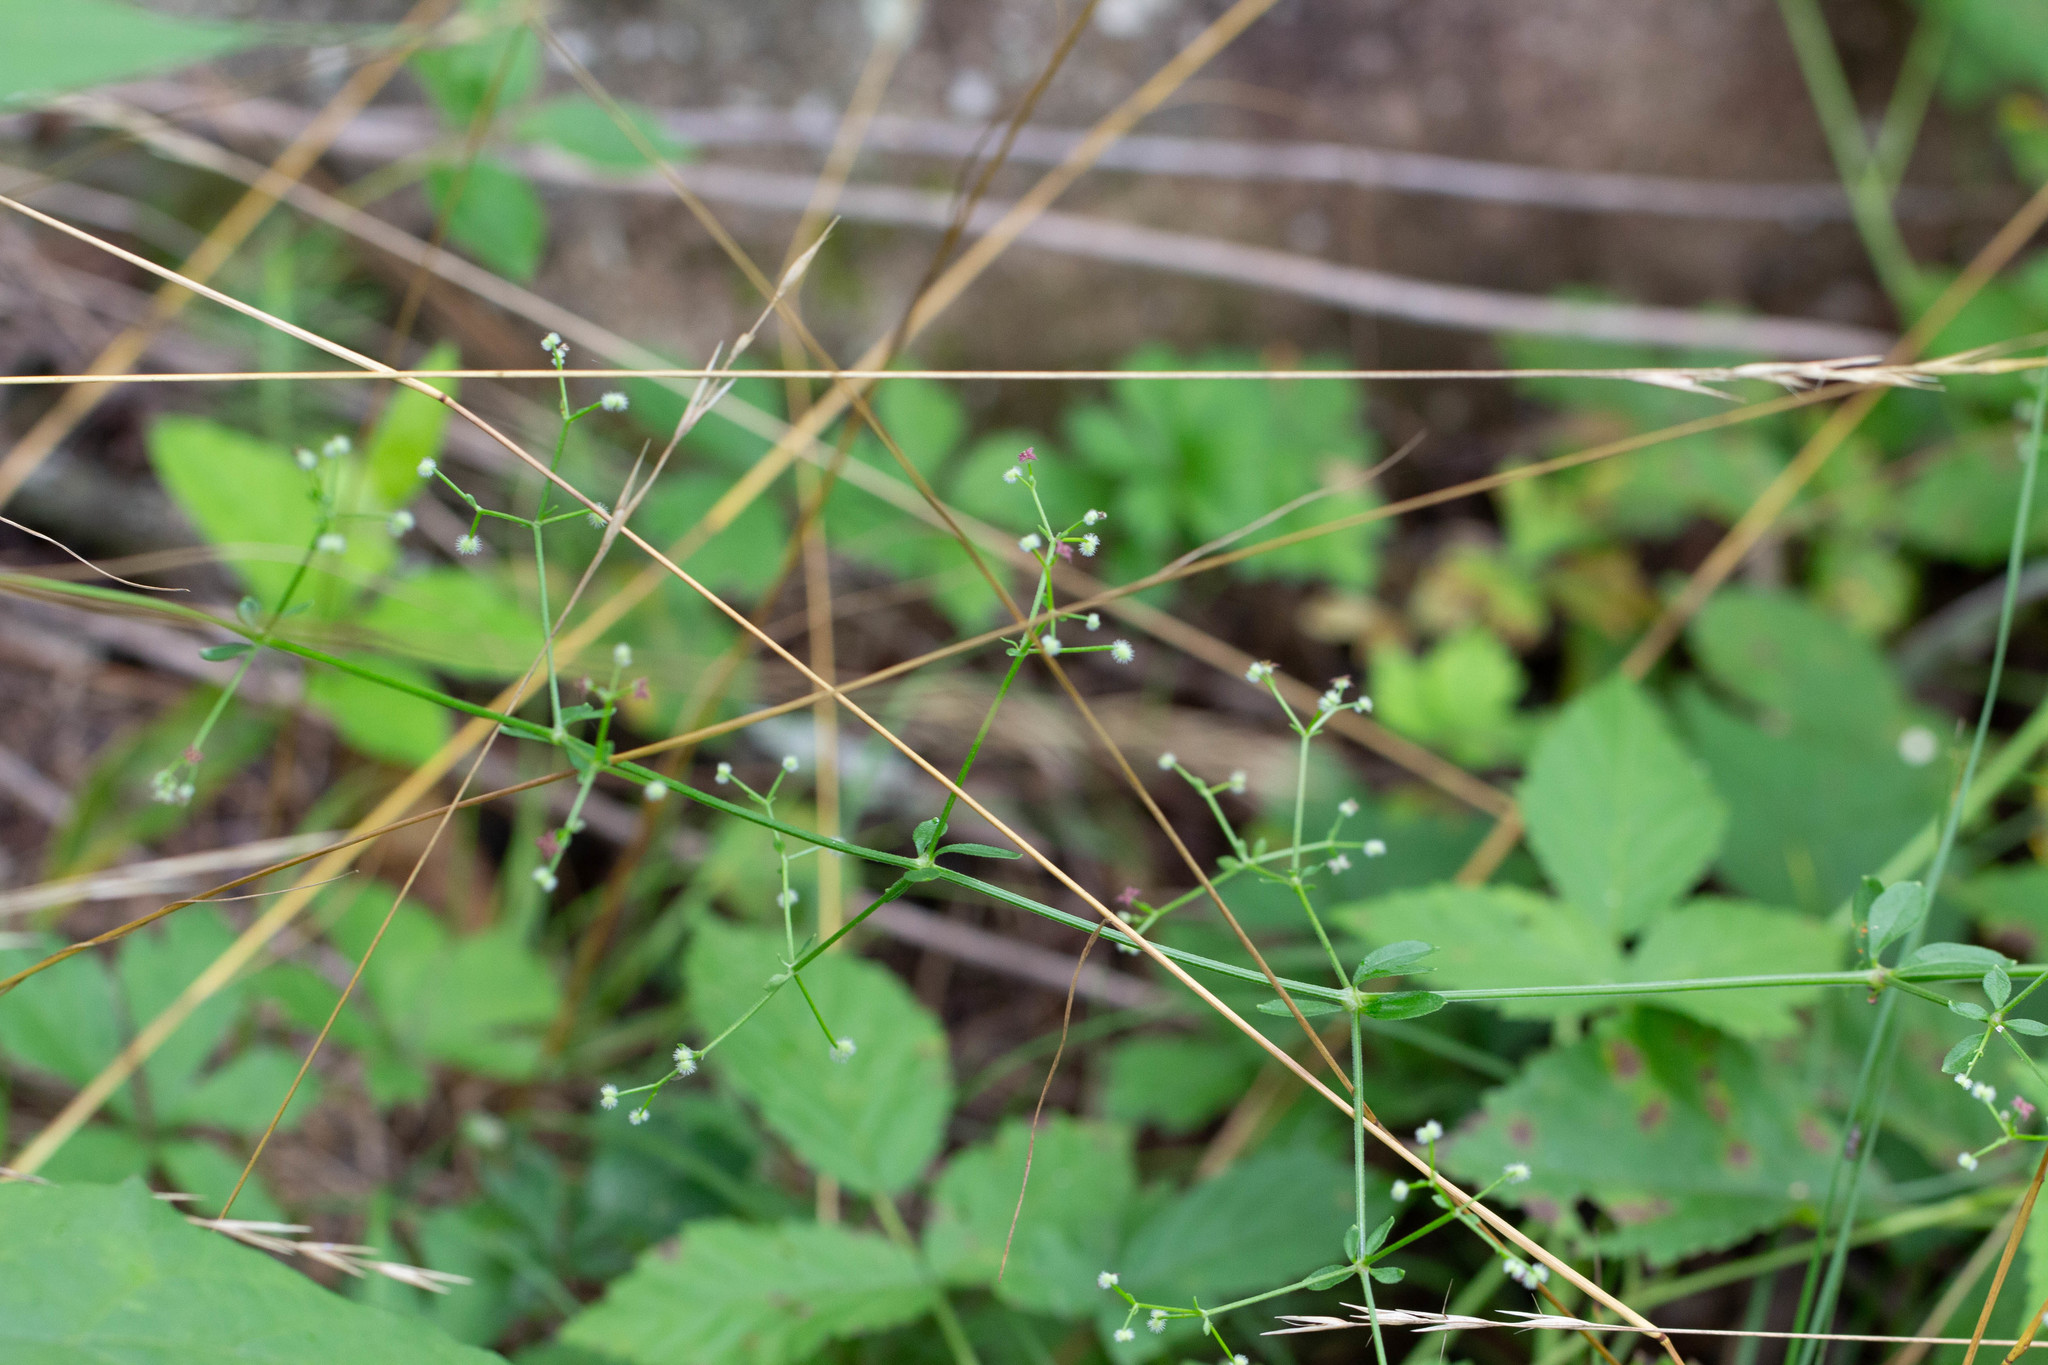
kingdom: Plantae
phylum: Tracheophyta
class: Magnoliopsida
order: Gentianales
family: Rubiaceae
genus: Galium
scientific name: Galium pilosum
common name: Hairy bedstraw
